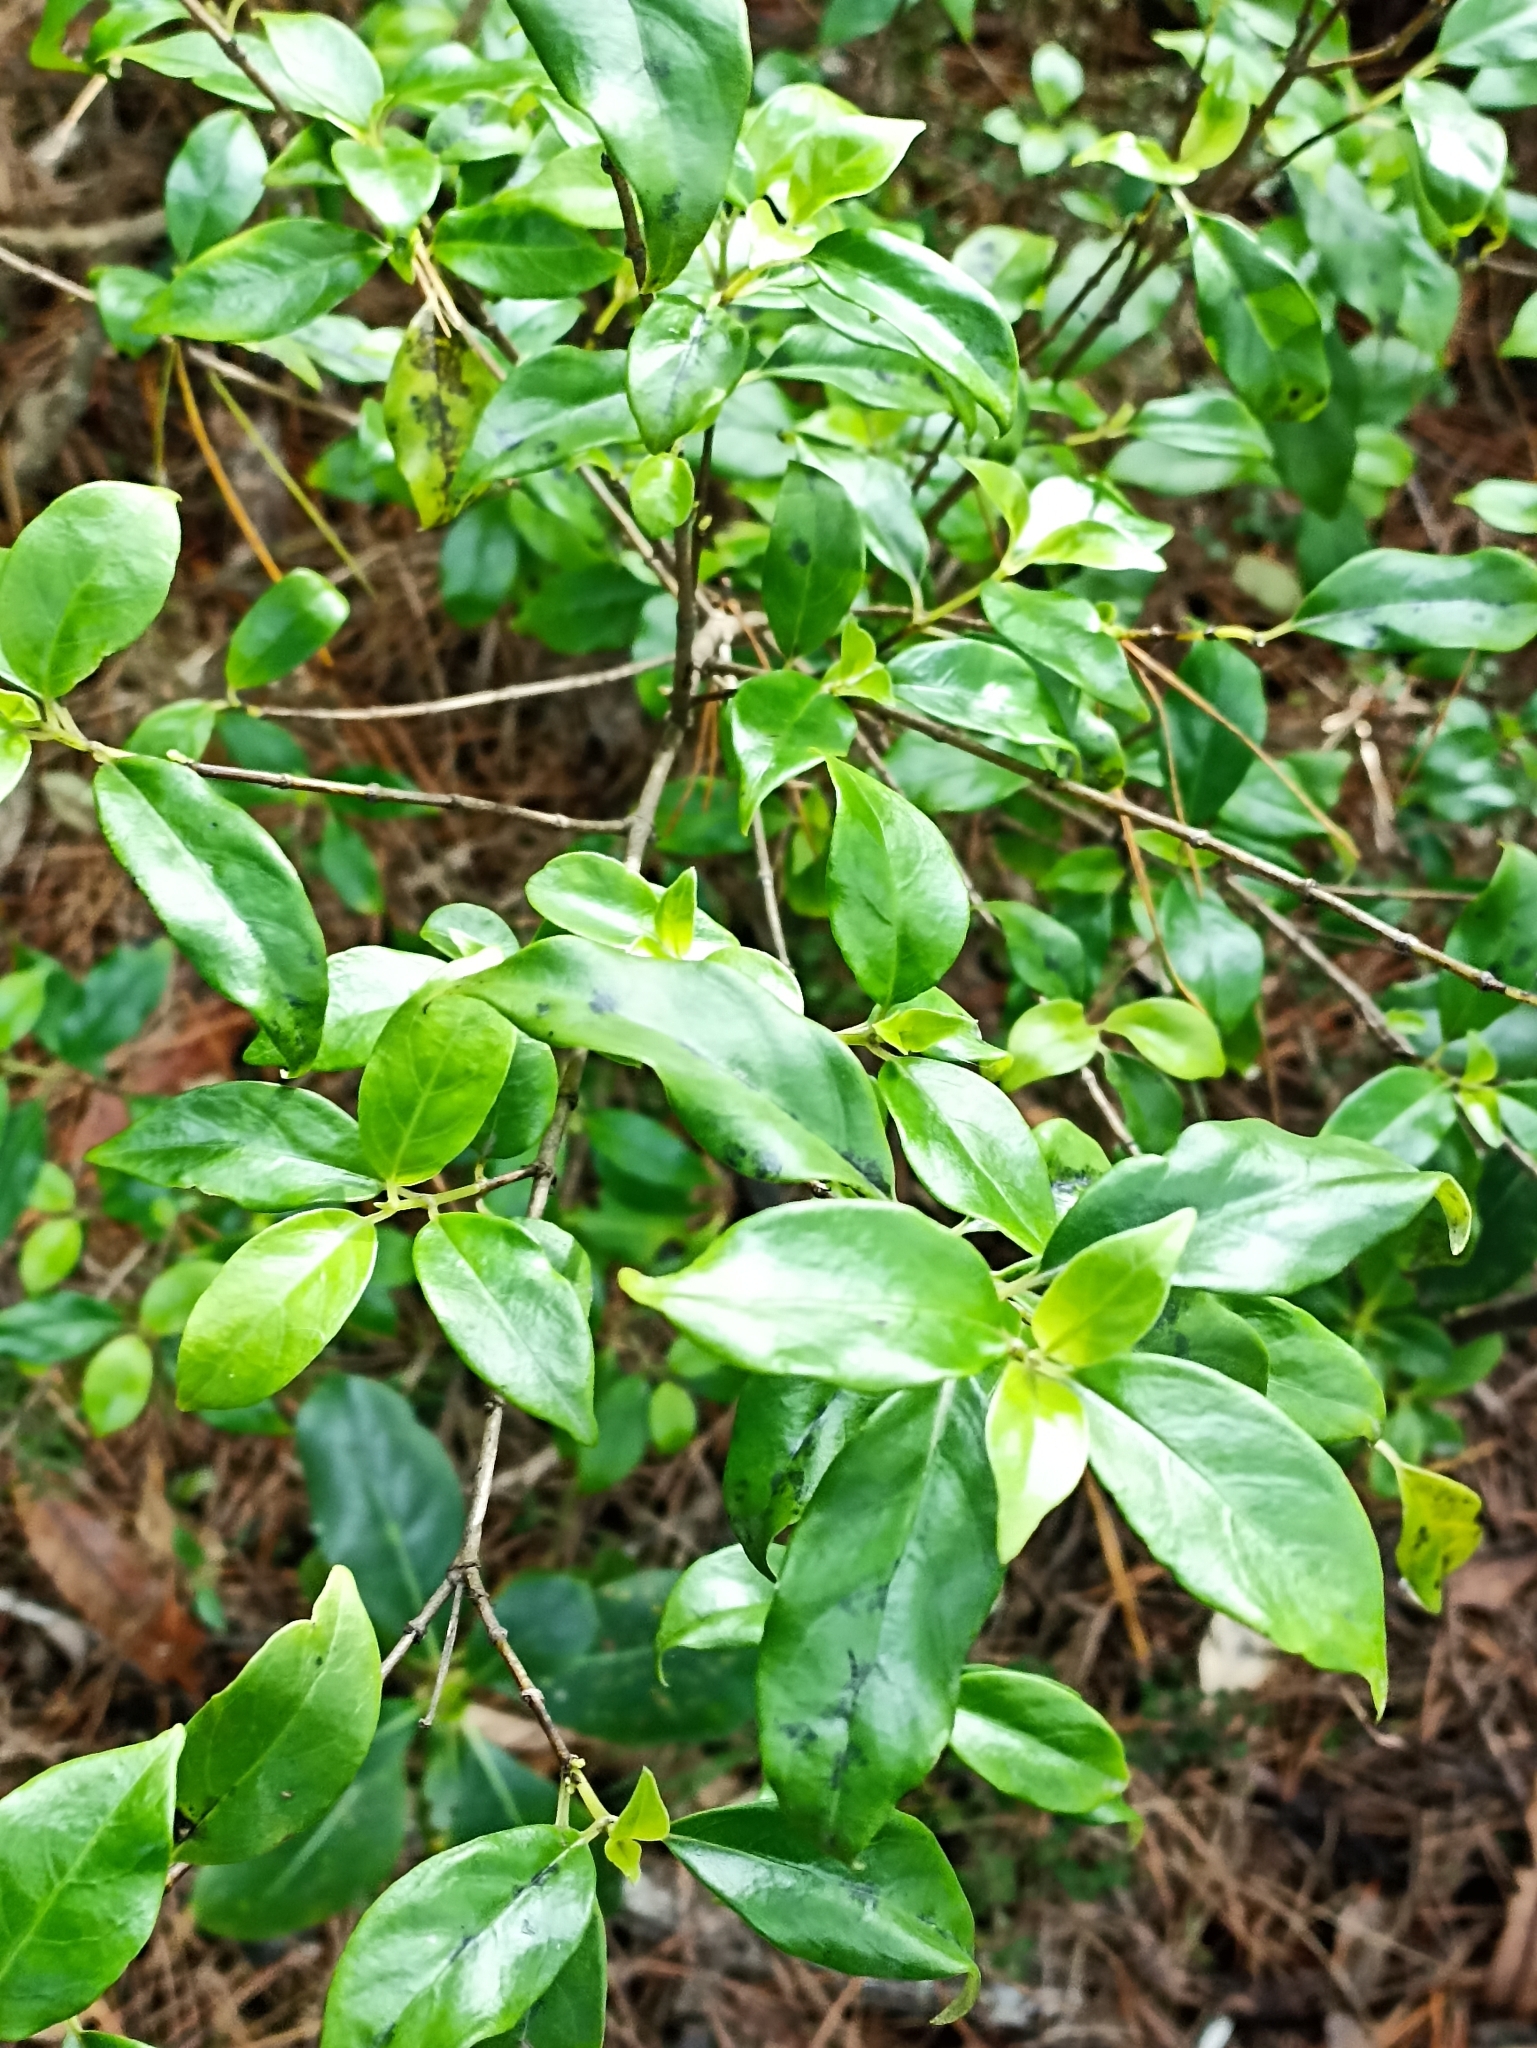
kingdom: Plantae
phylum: Tracheophyta
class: Magnoliopsida
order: Gentianales
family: Loganiaceae
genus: Geniostoma
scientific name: Geniostoma ligustrifolium
